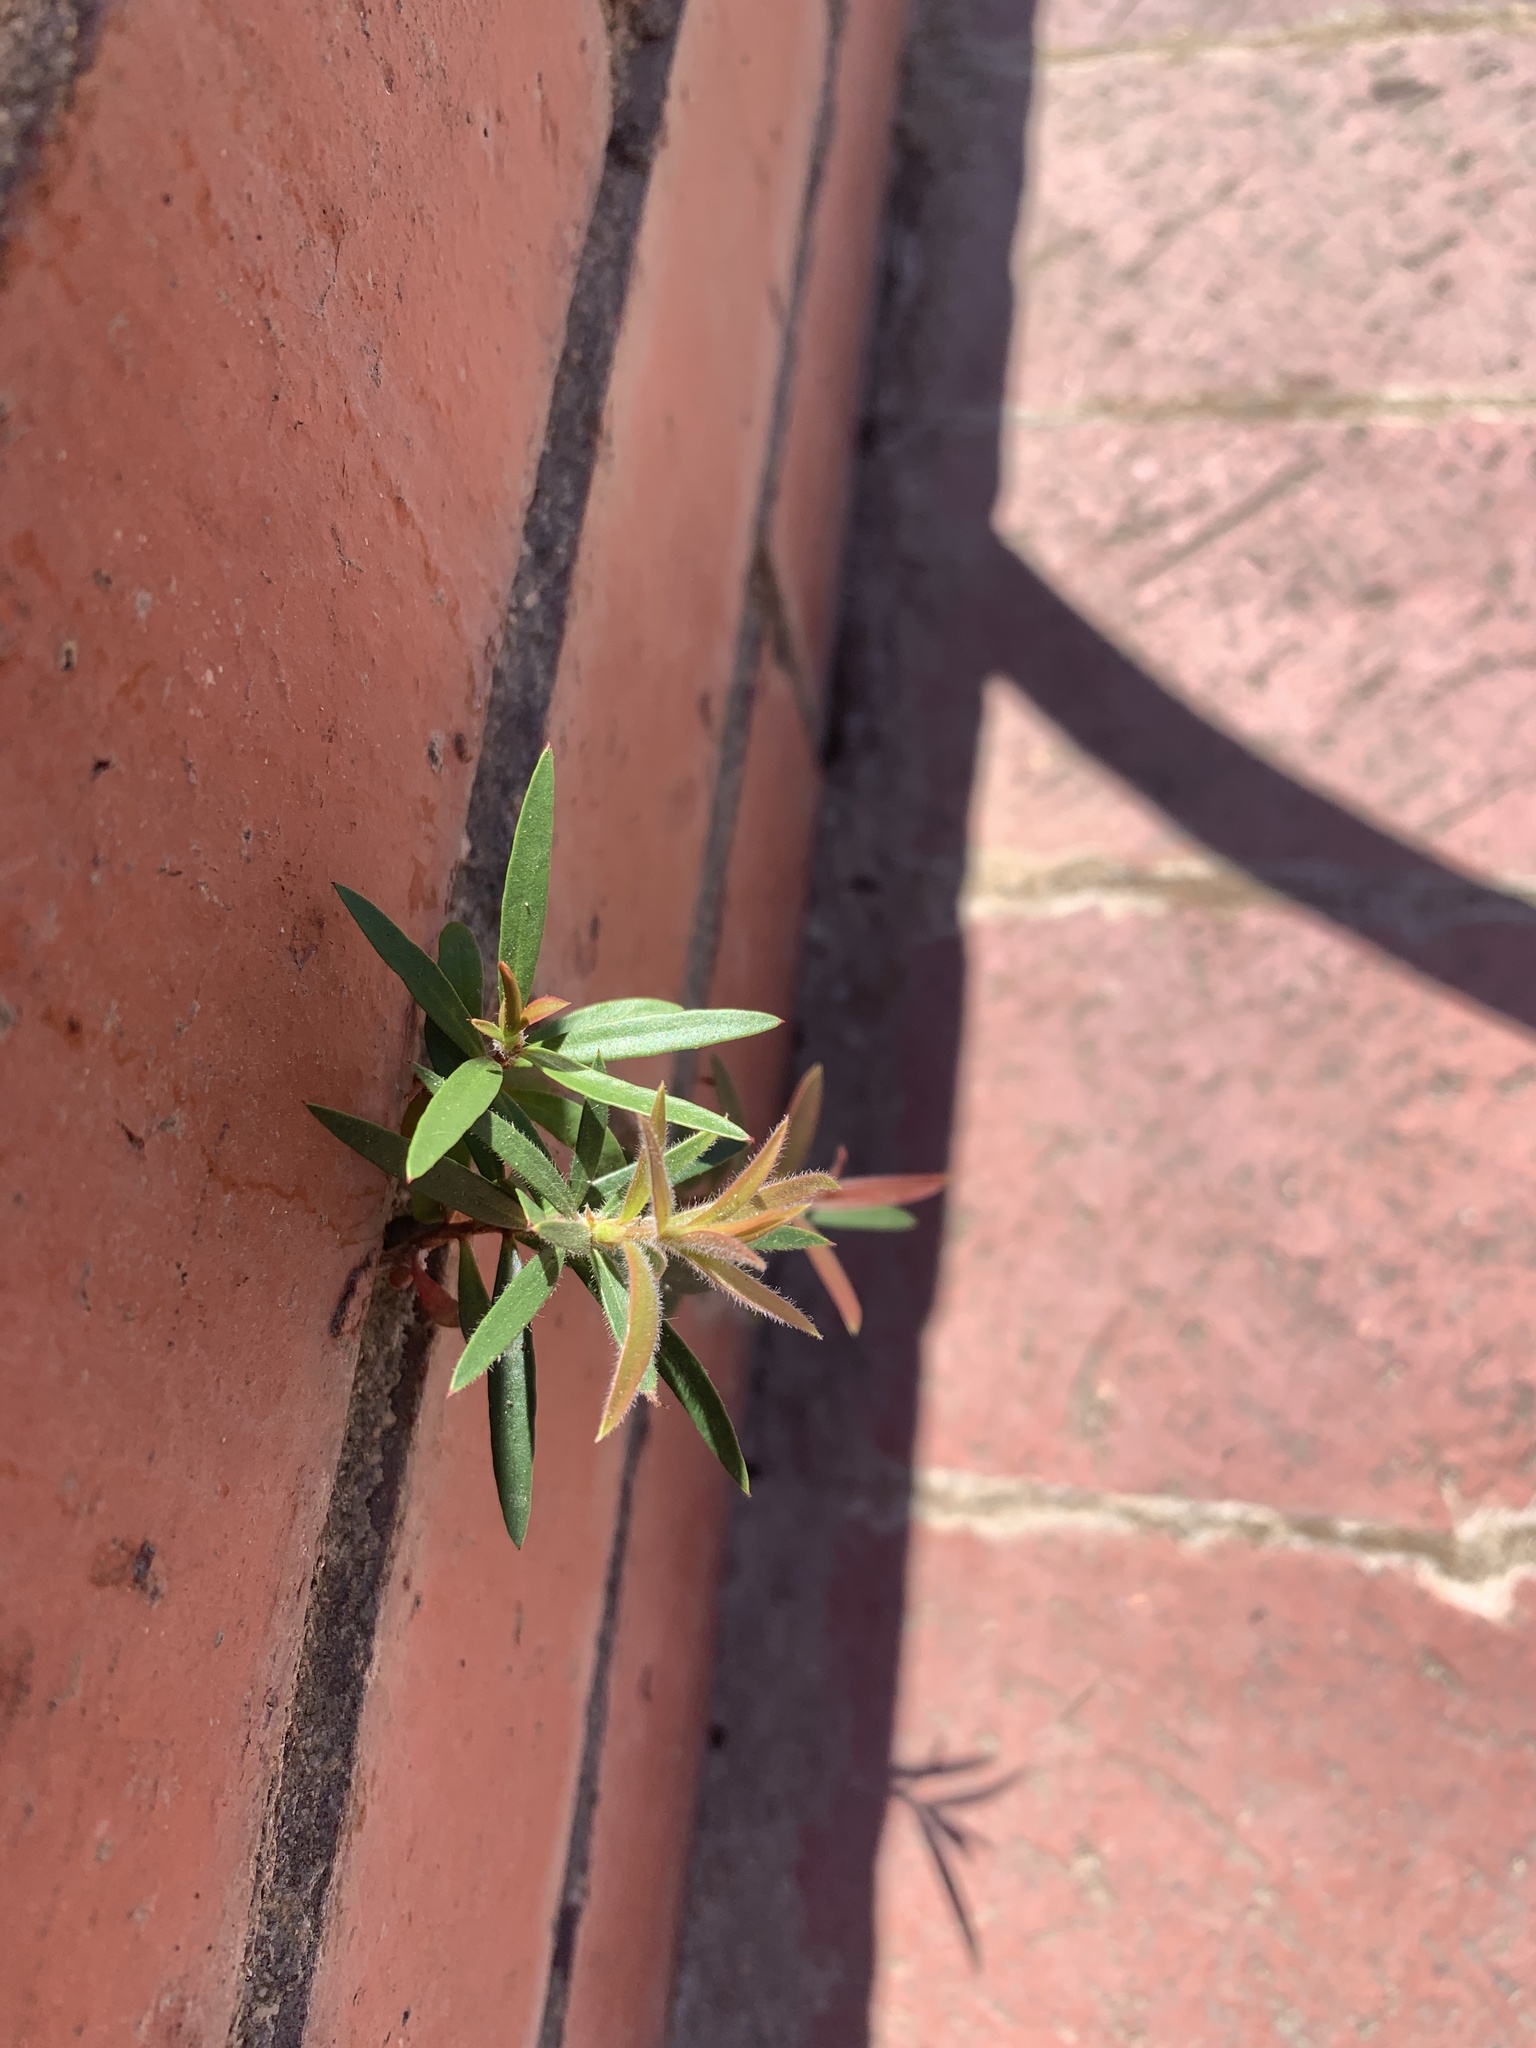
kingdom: Plantae
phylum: Tracheophyta
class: Magnoliopsida
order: Myrtales
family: Myrtaceae
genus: Callistemon
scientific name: Callistemon viminalis
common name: Drooping bottlebrush
